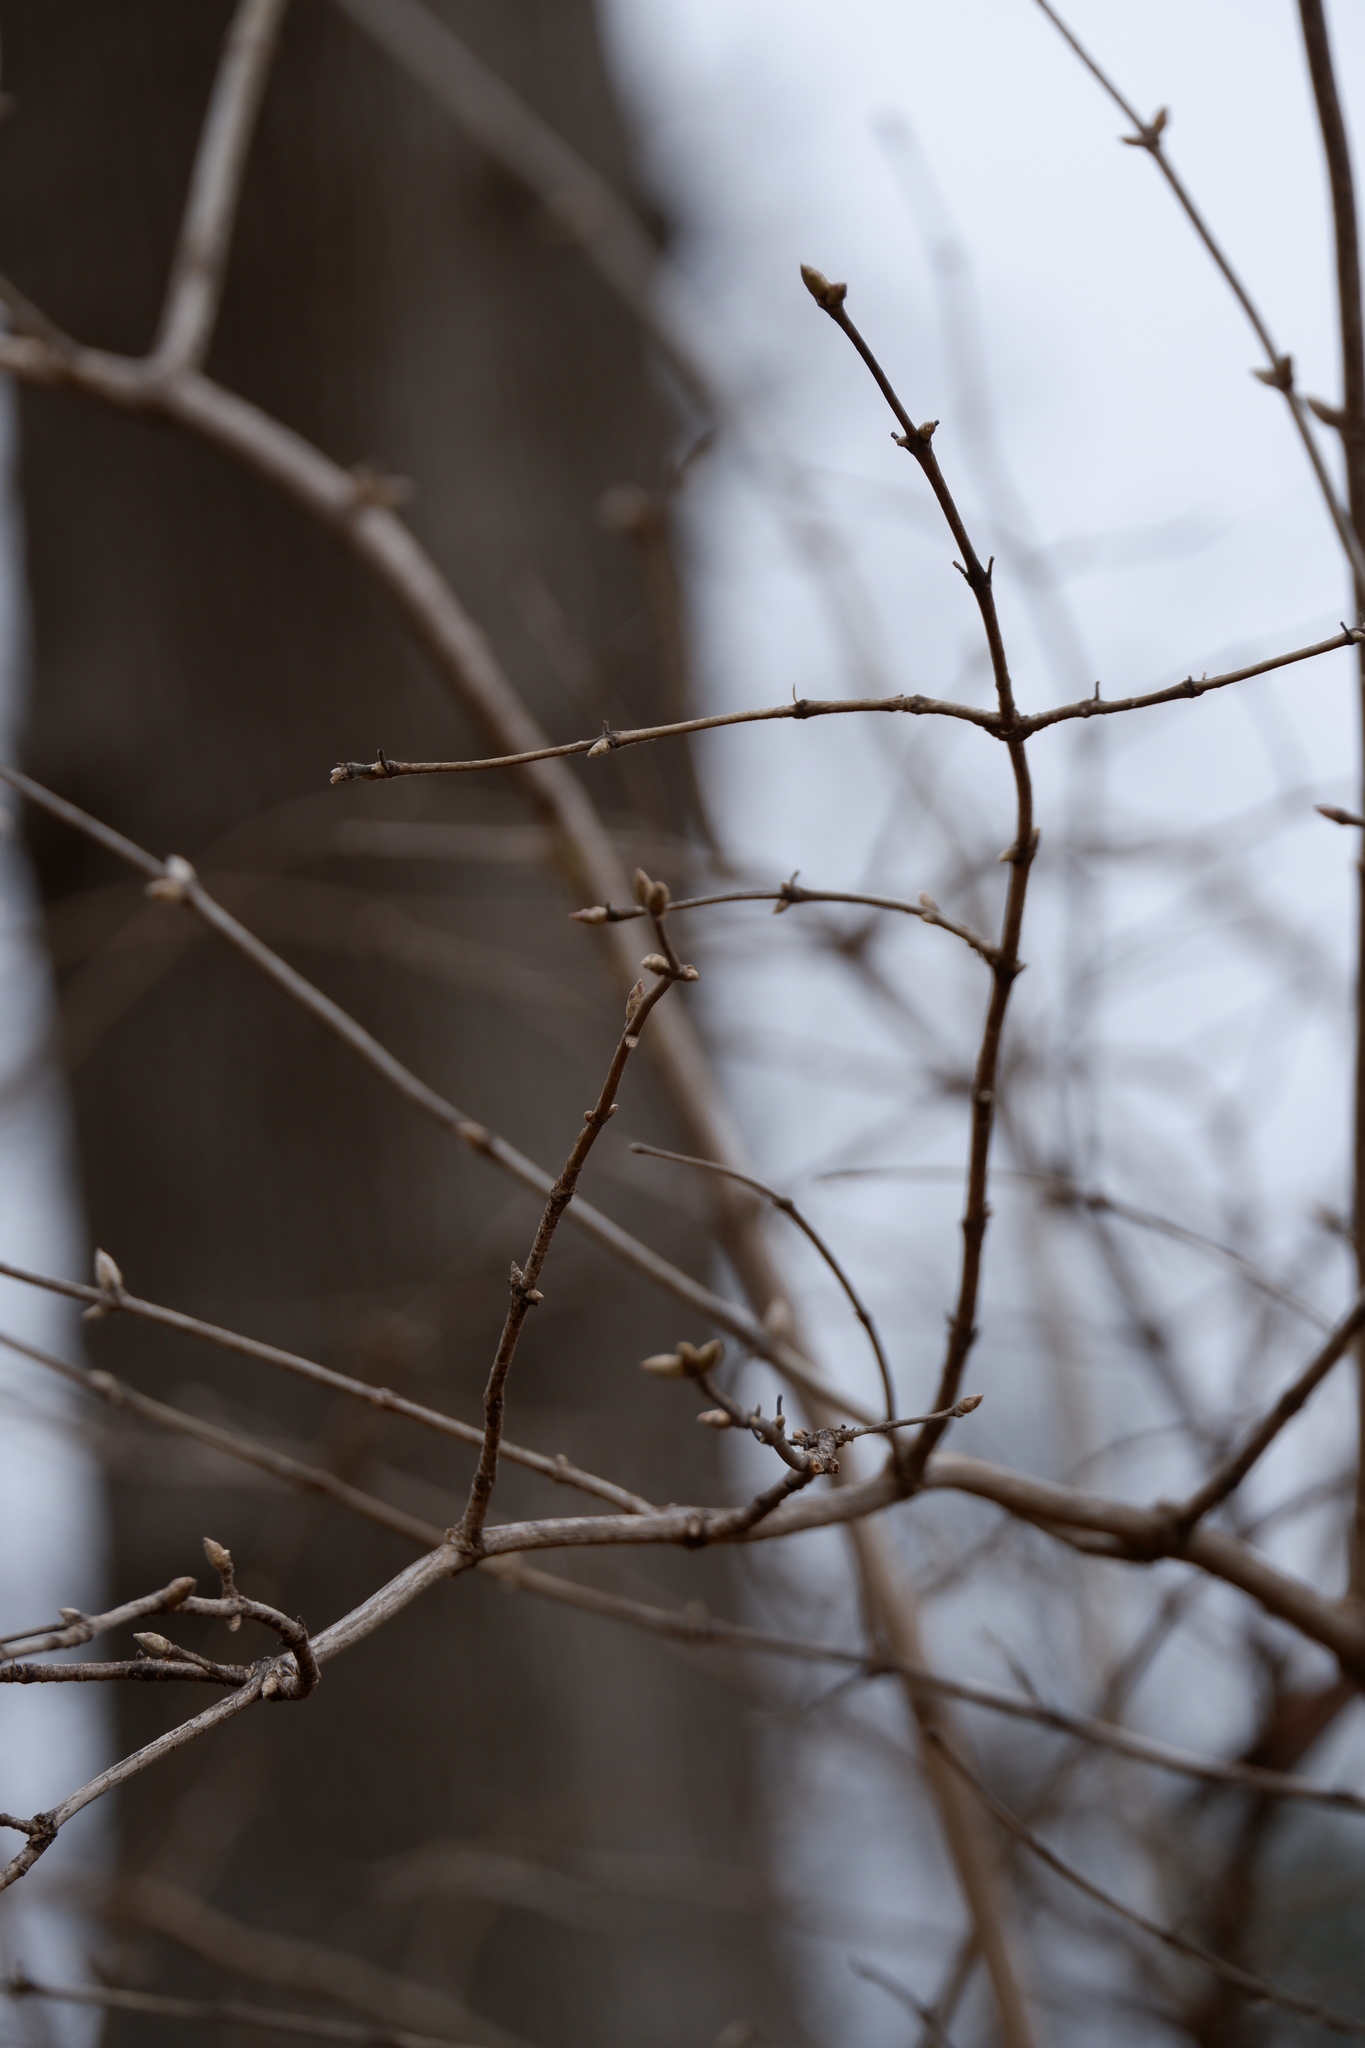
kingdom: Plantae
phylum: Tracheophyta
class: Magnoliopsida
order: Dipsacales
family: Caprifoliaceae
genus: Lonicera
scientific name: Lonicera maackii
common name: Amur honeysuckle
